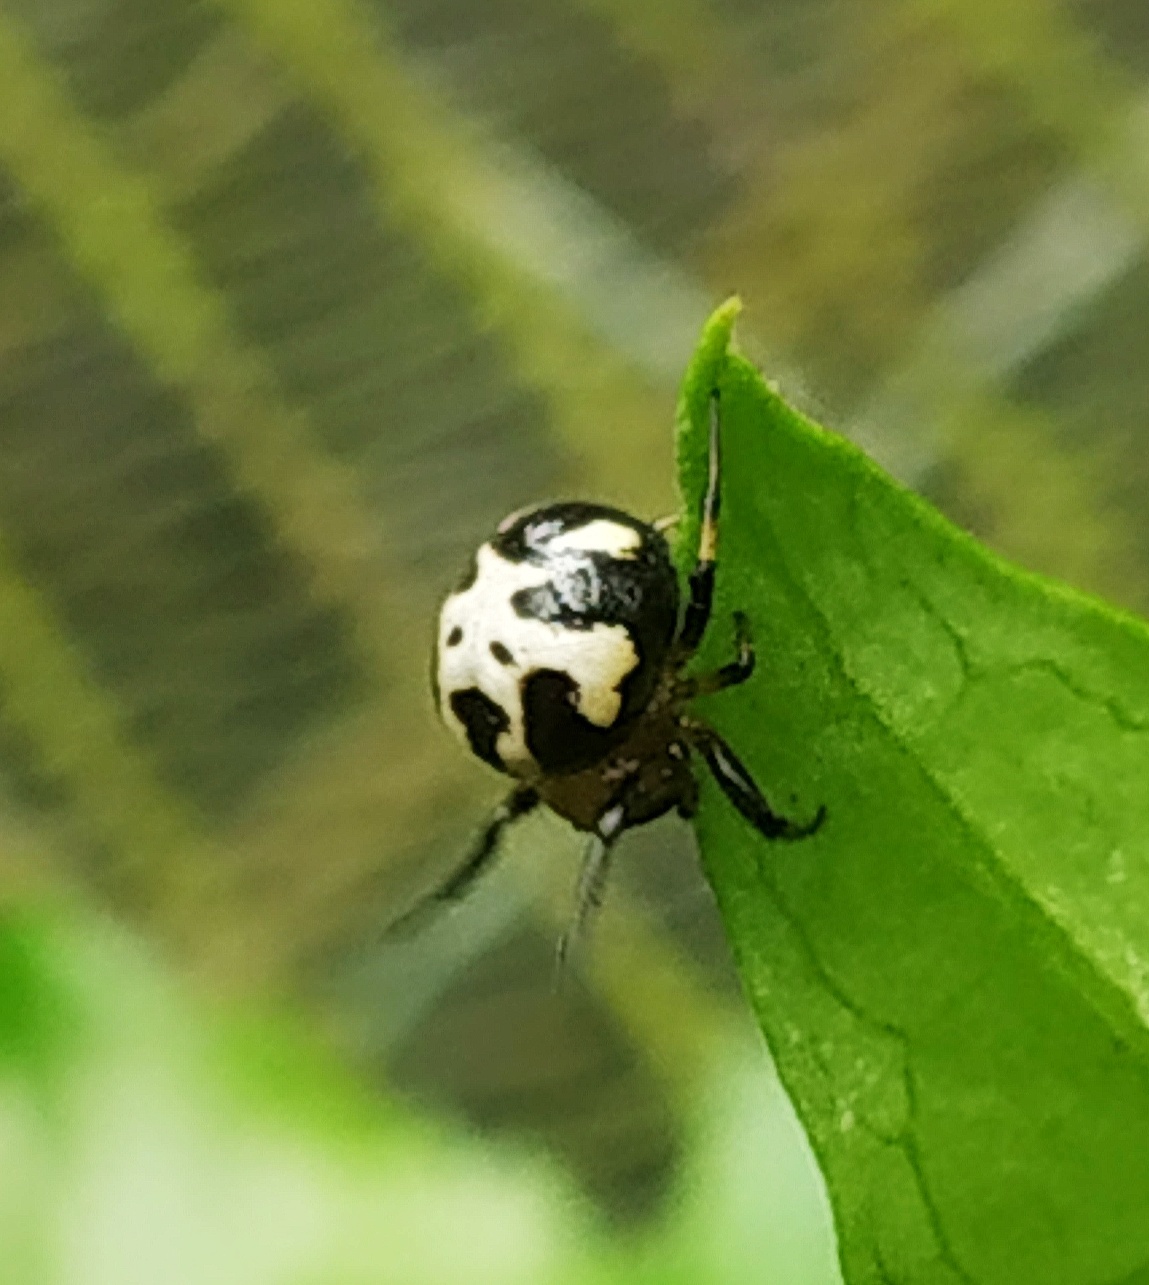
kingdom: Animalia
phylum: Arthropoda
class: Arachnida
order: Araneae
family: Araneidae
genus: Anepsion
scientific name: Anepsion maritatum
